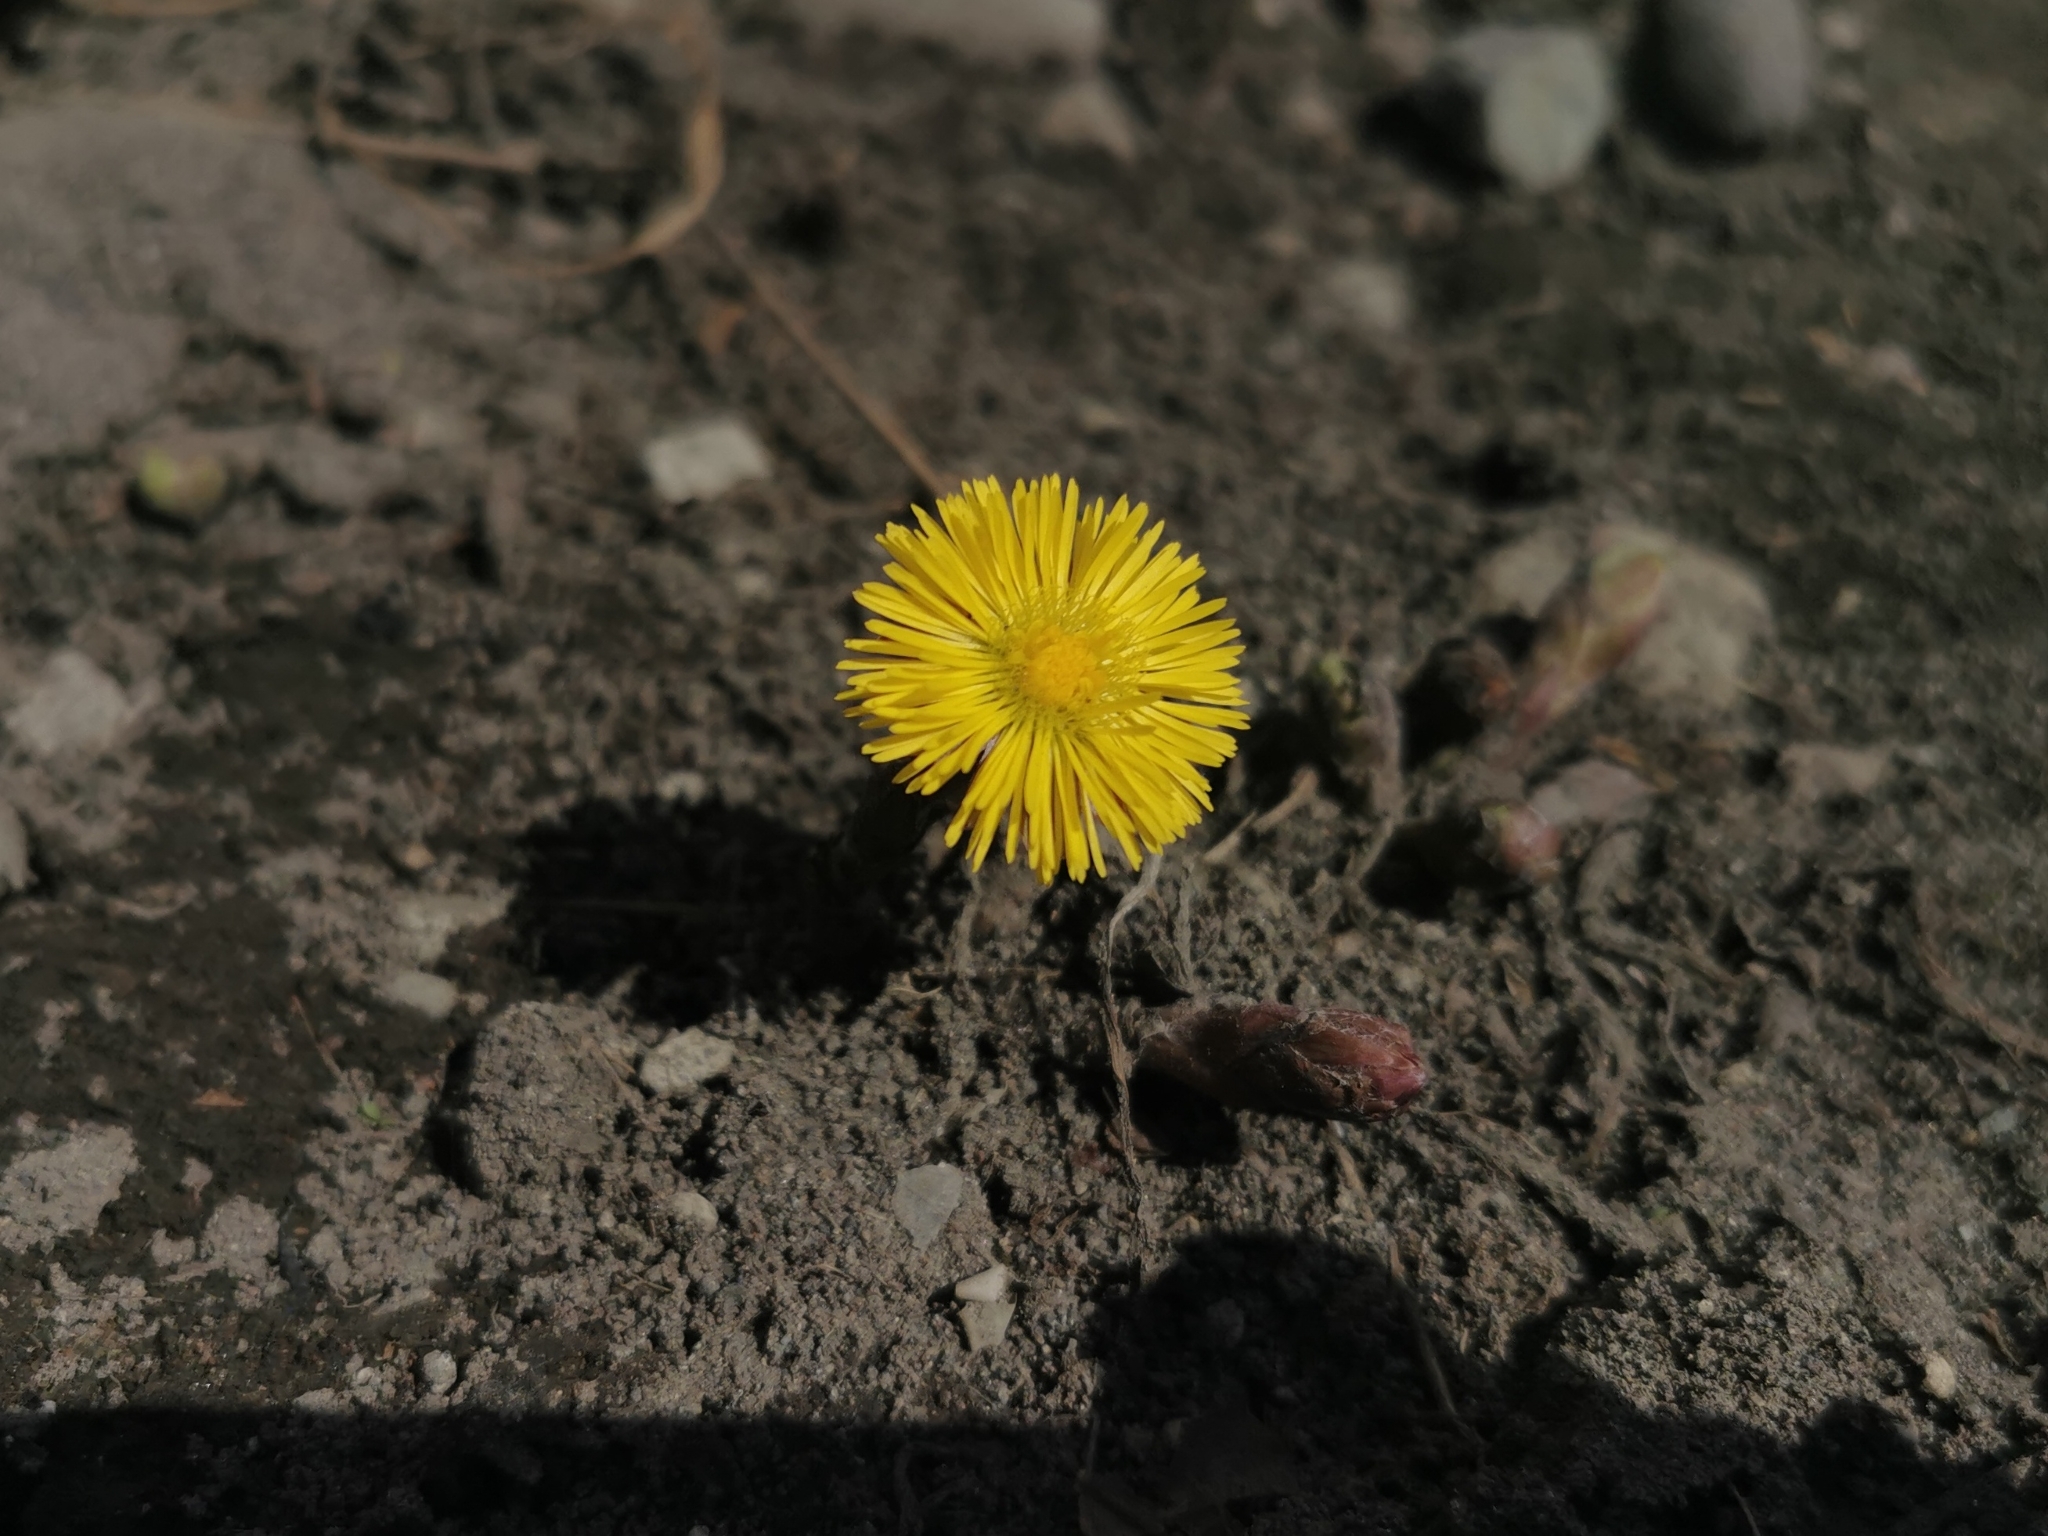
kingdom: Plantae
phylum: Tracheophyta
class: Magnoliopsida
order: Asterales
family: Asteraceae
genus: Tussilago
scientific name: Tussilago farfara
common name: Coltsfoot
